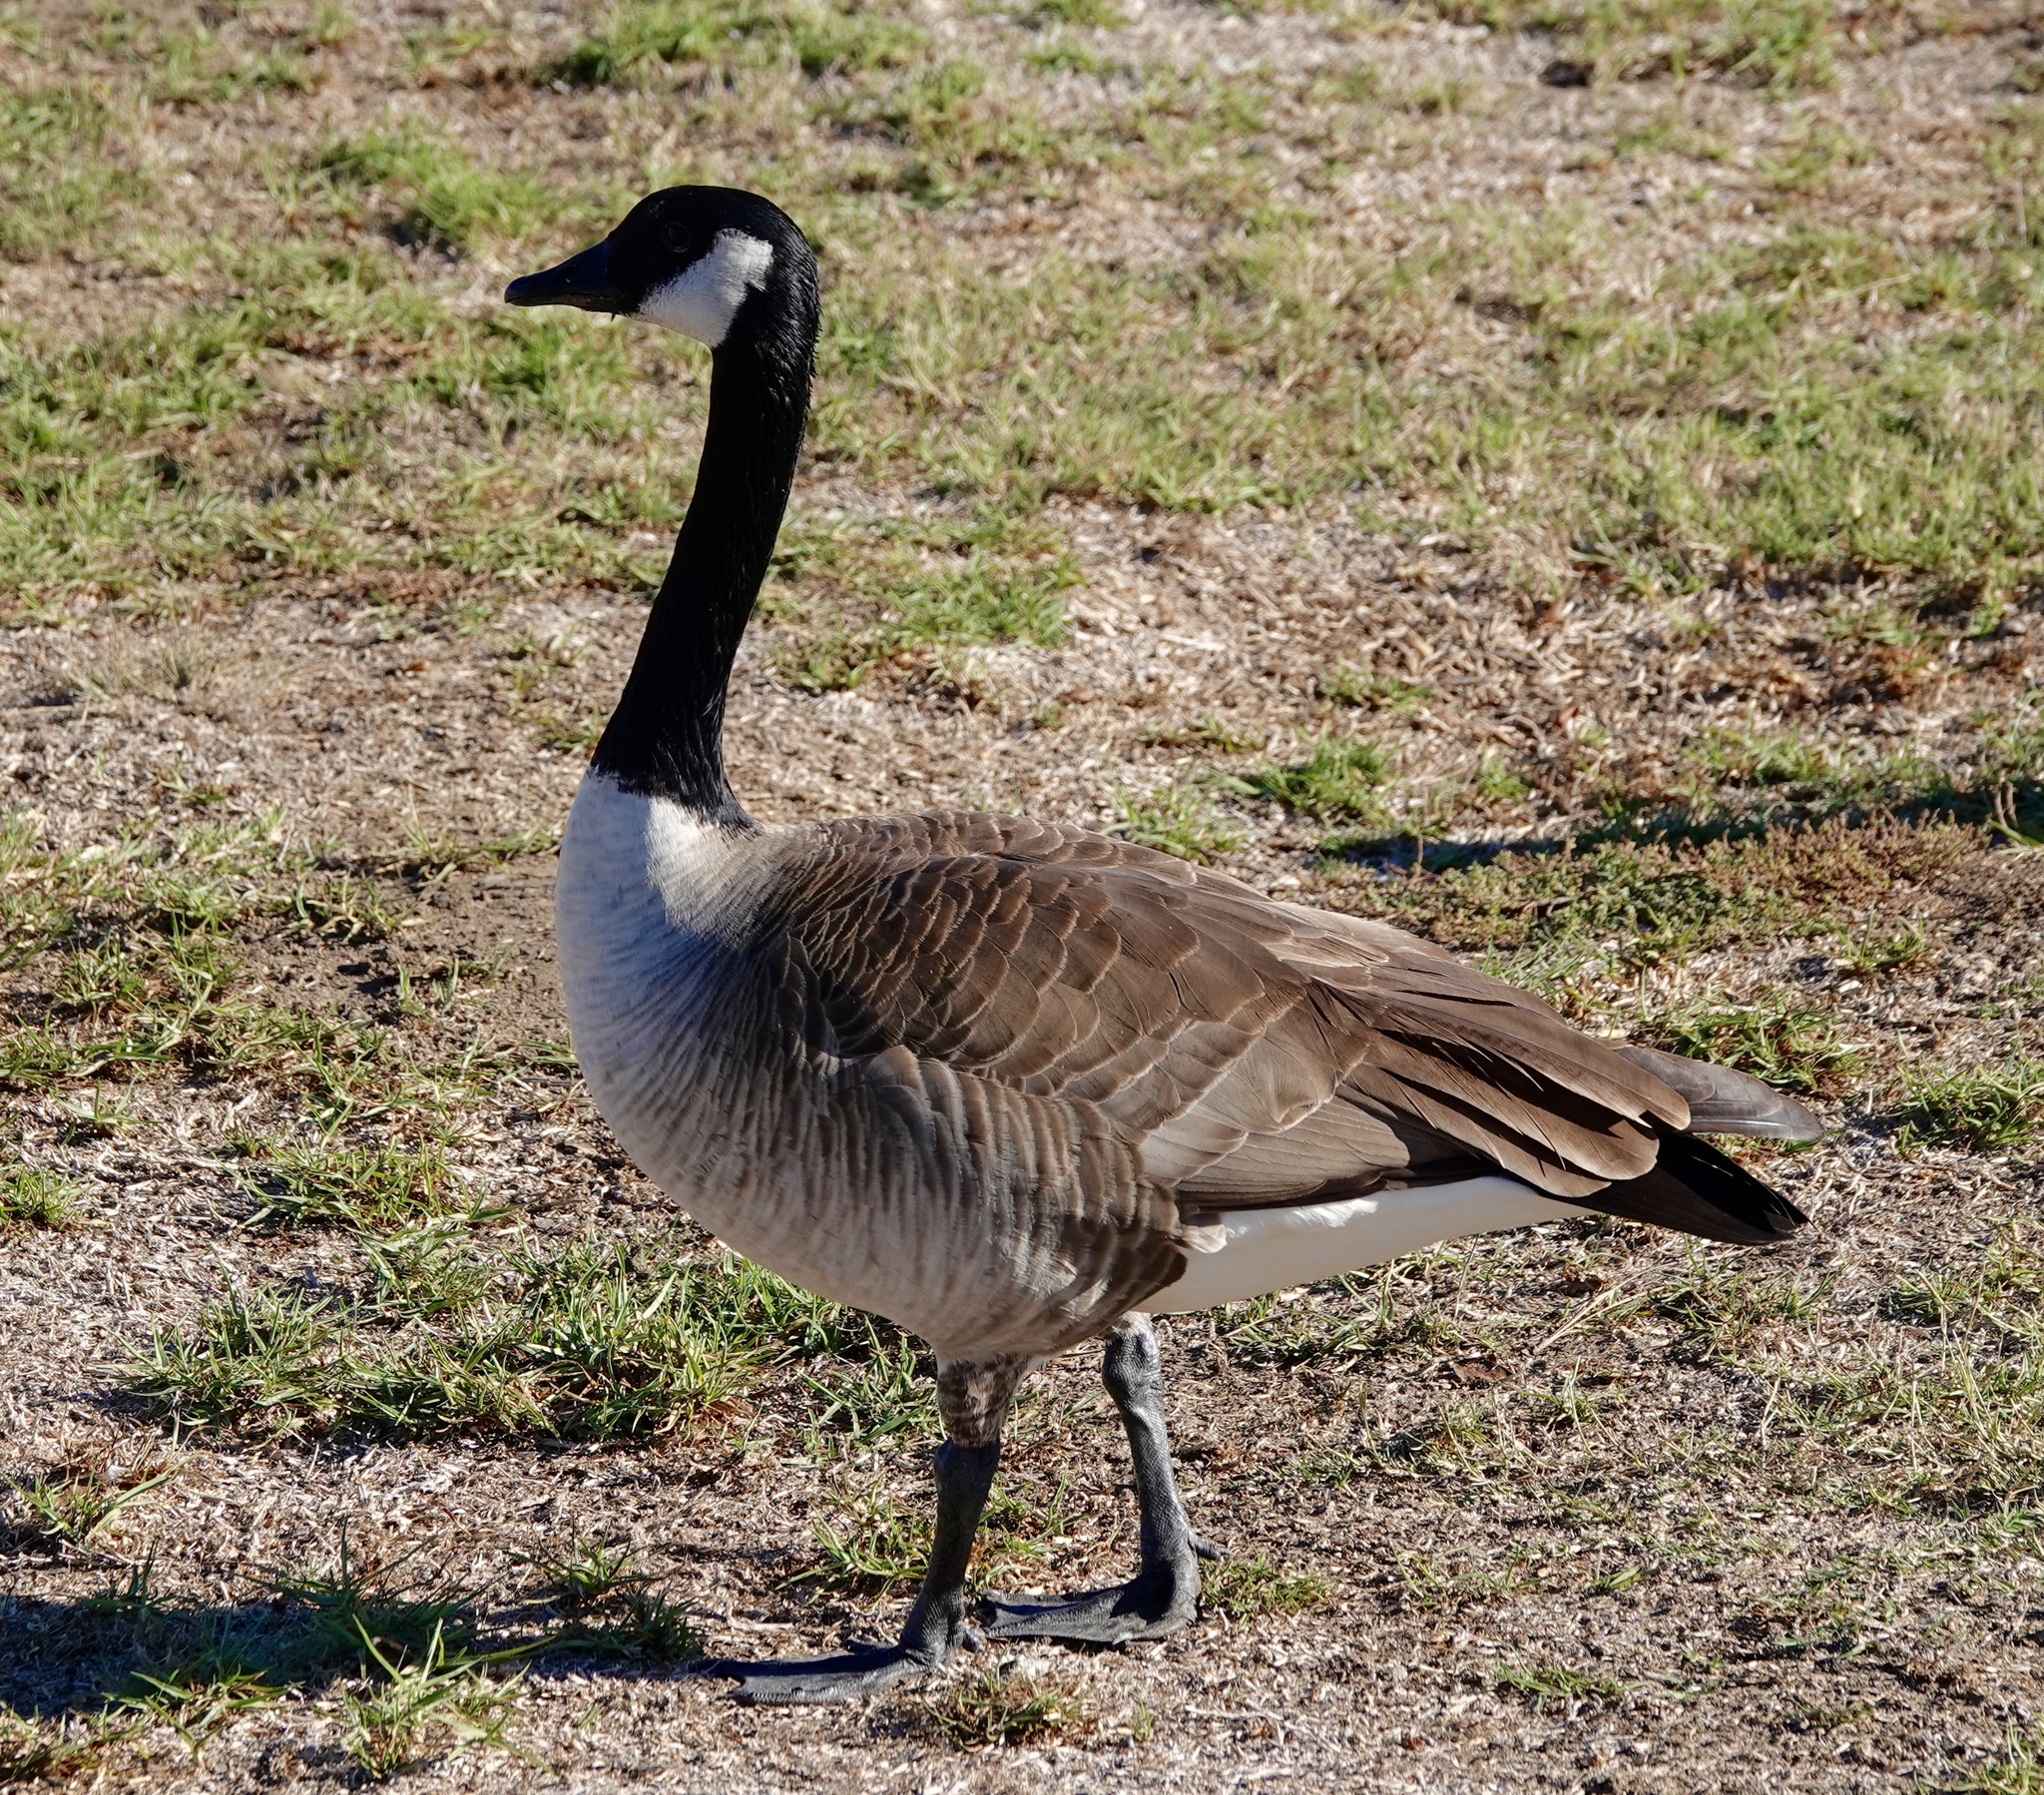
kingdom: Animalia
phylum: Chordata
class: Aves
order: Anseriformes
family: Anatidae
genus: Branta
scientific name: Branta canadensis
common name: Canada goose
